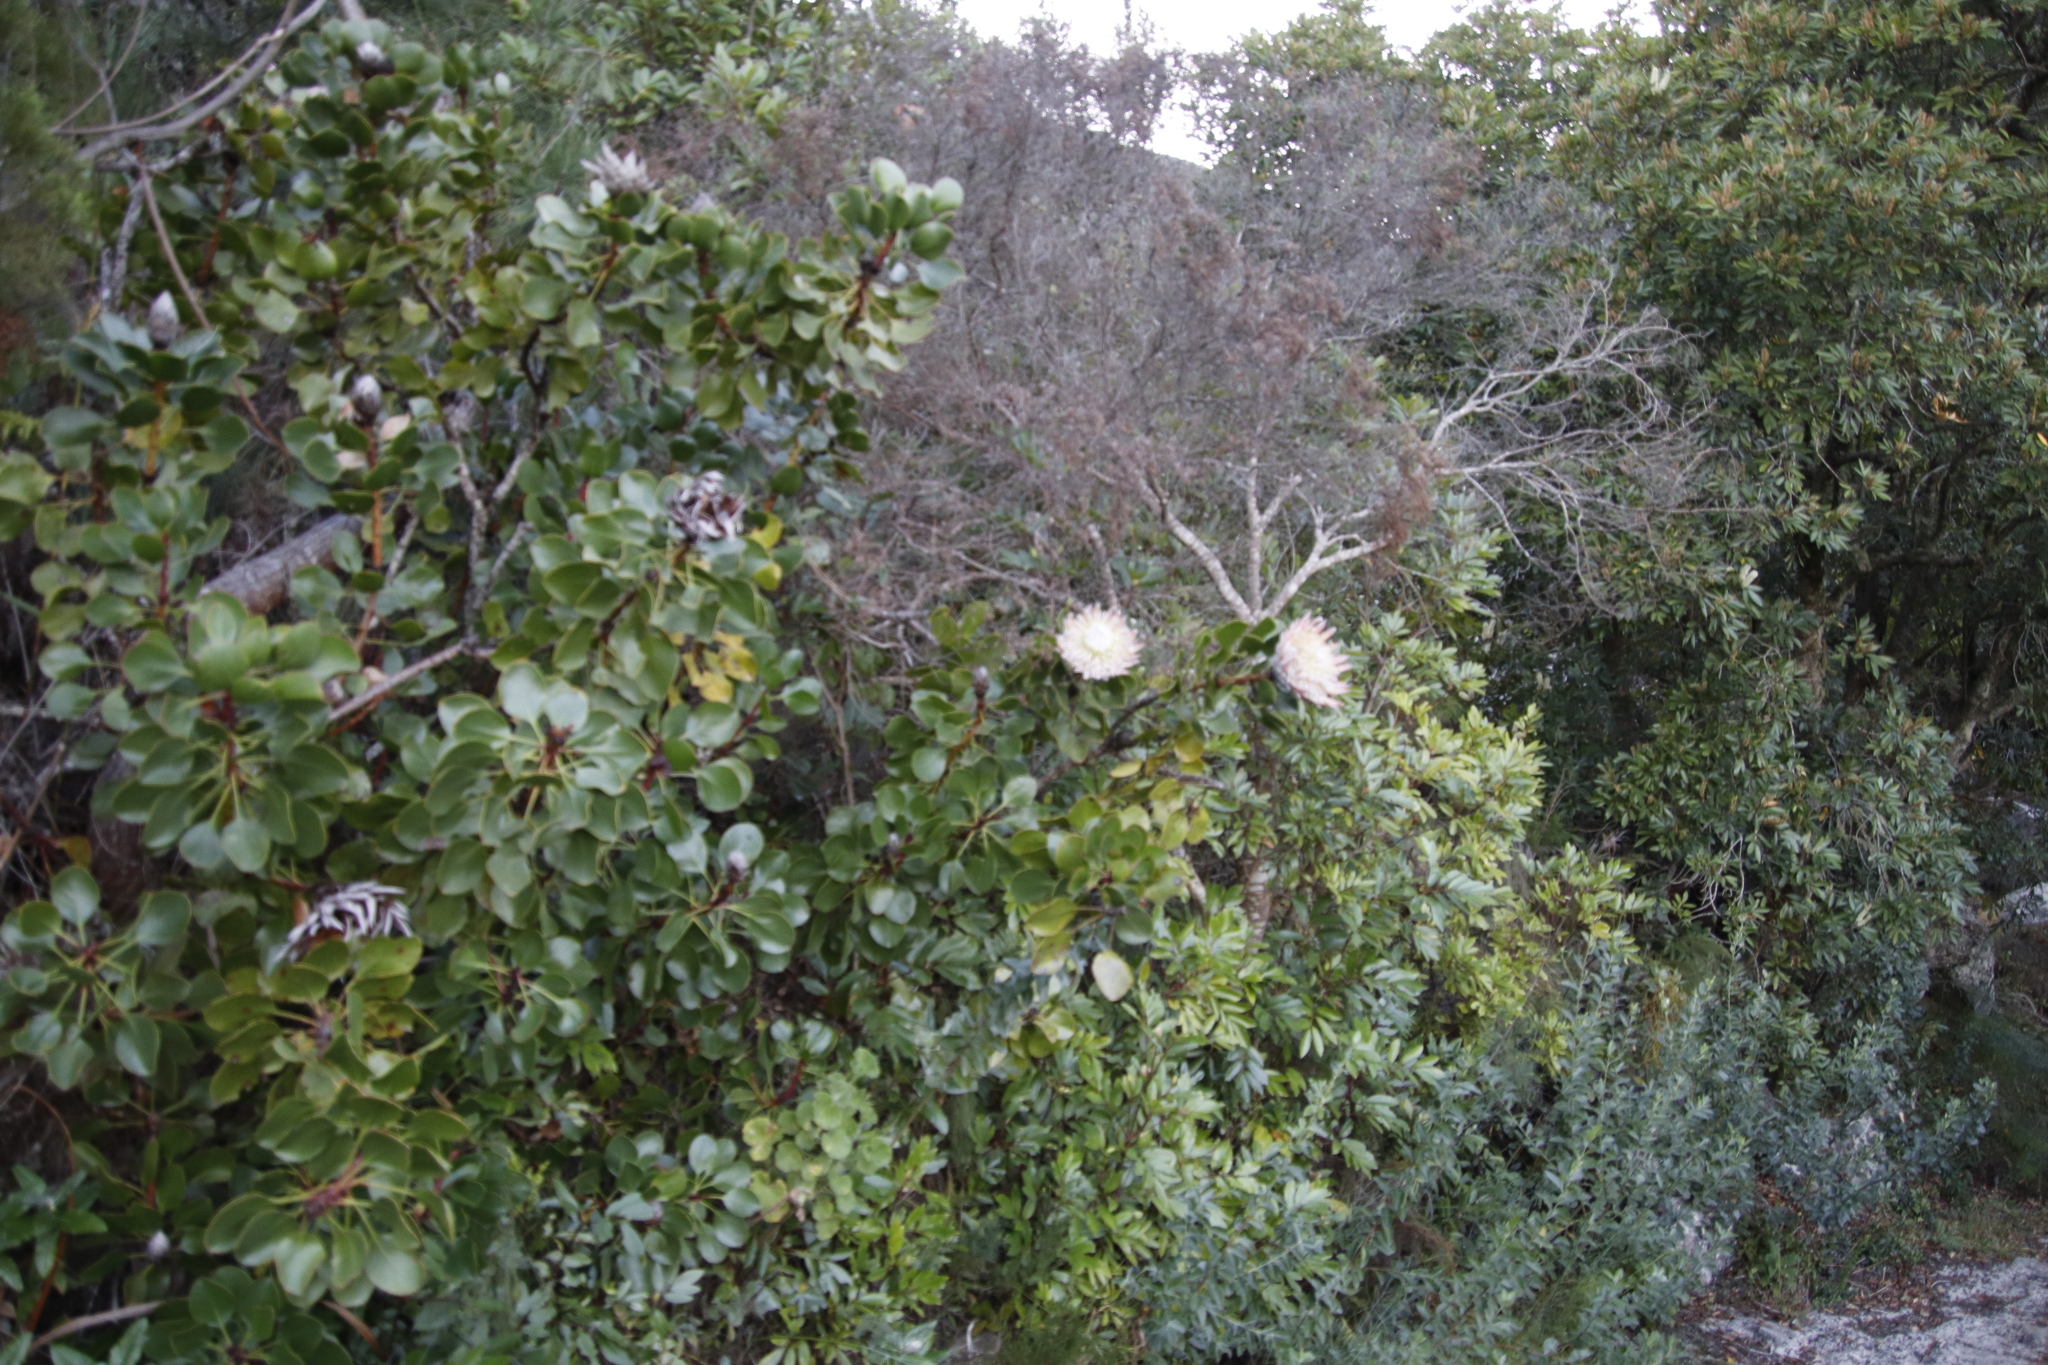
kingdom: Plantae
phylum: Tracheophyta
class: Magnoliopsida
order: Proteales
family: Proteaceae
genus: Protea
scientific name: Protea cynaroides
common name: King protea
